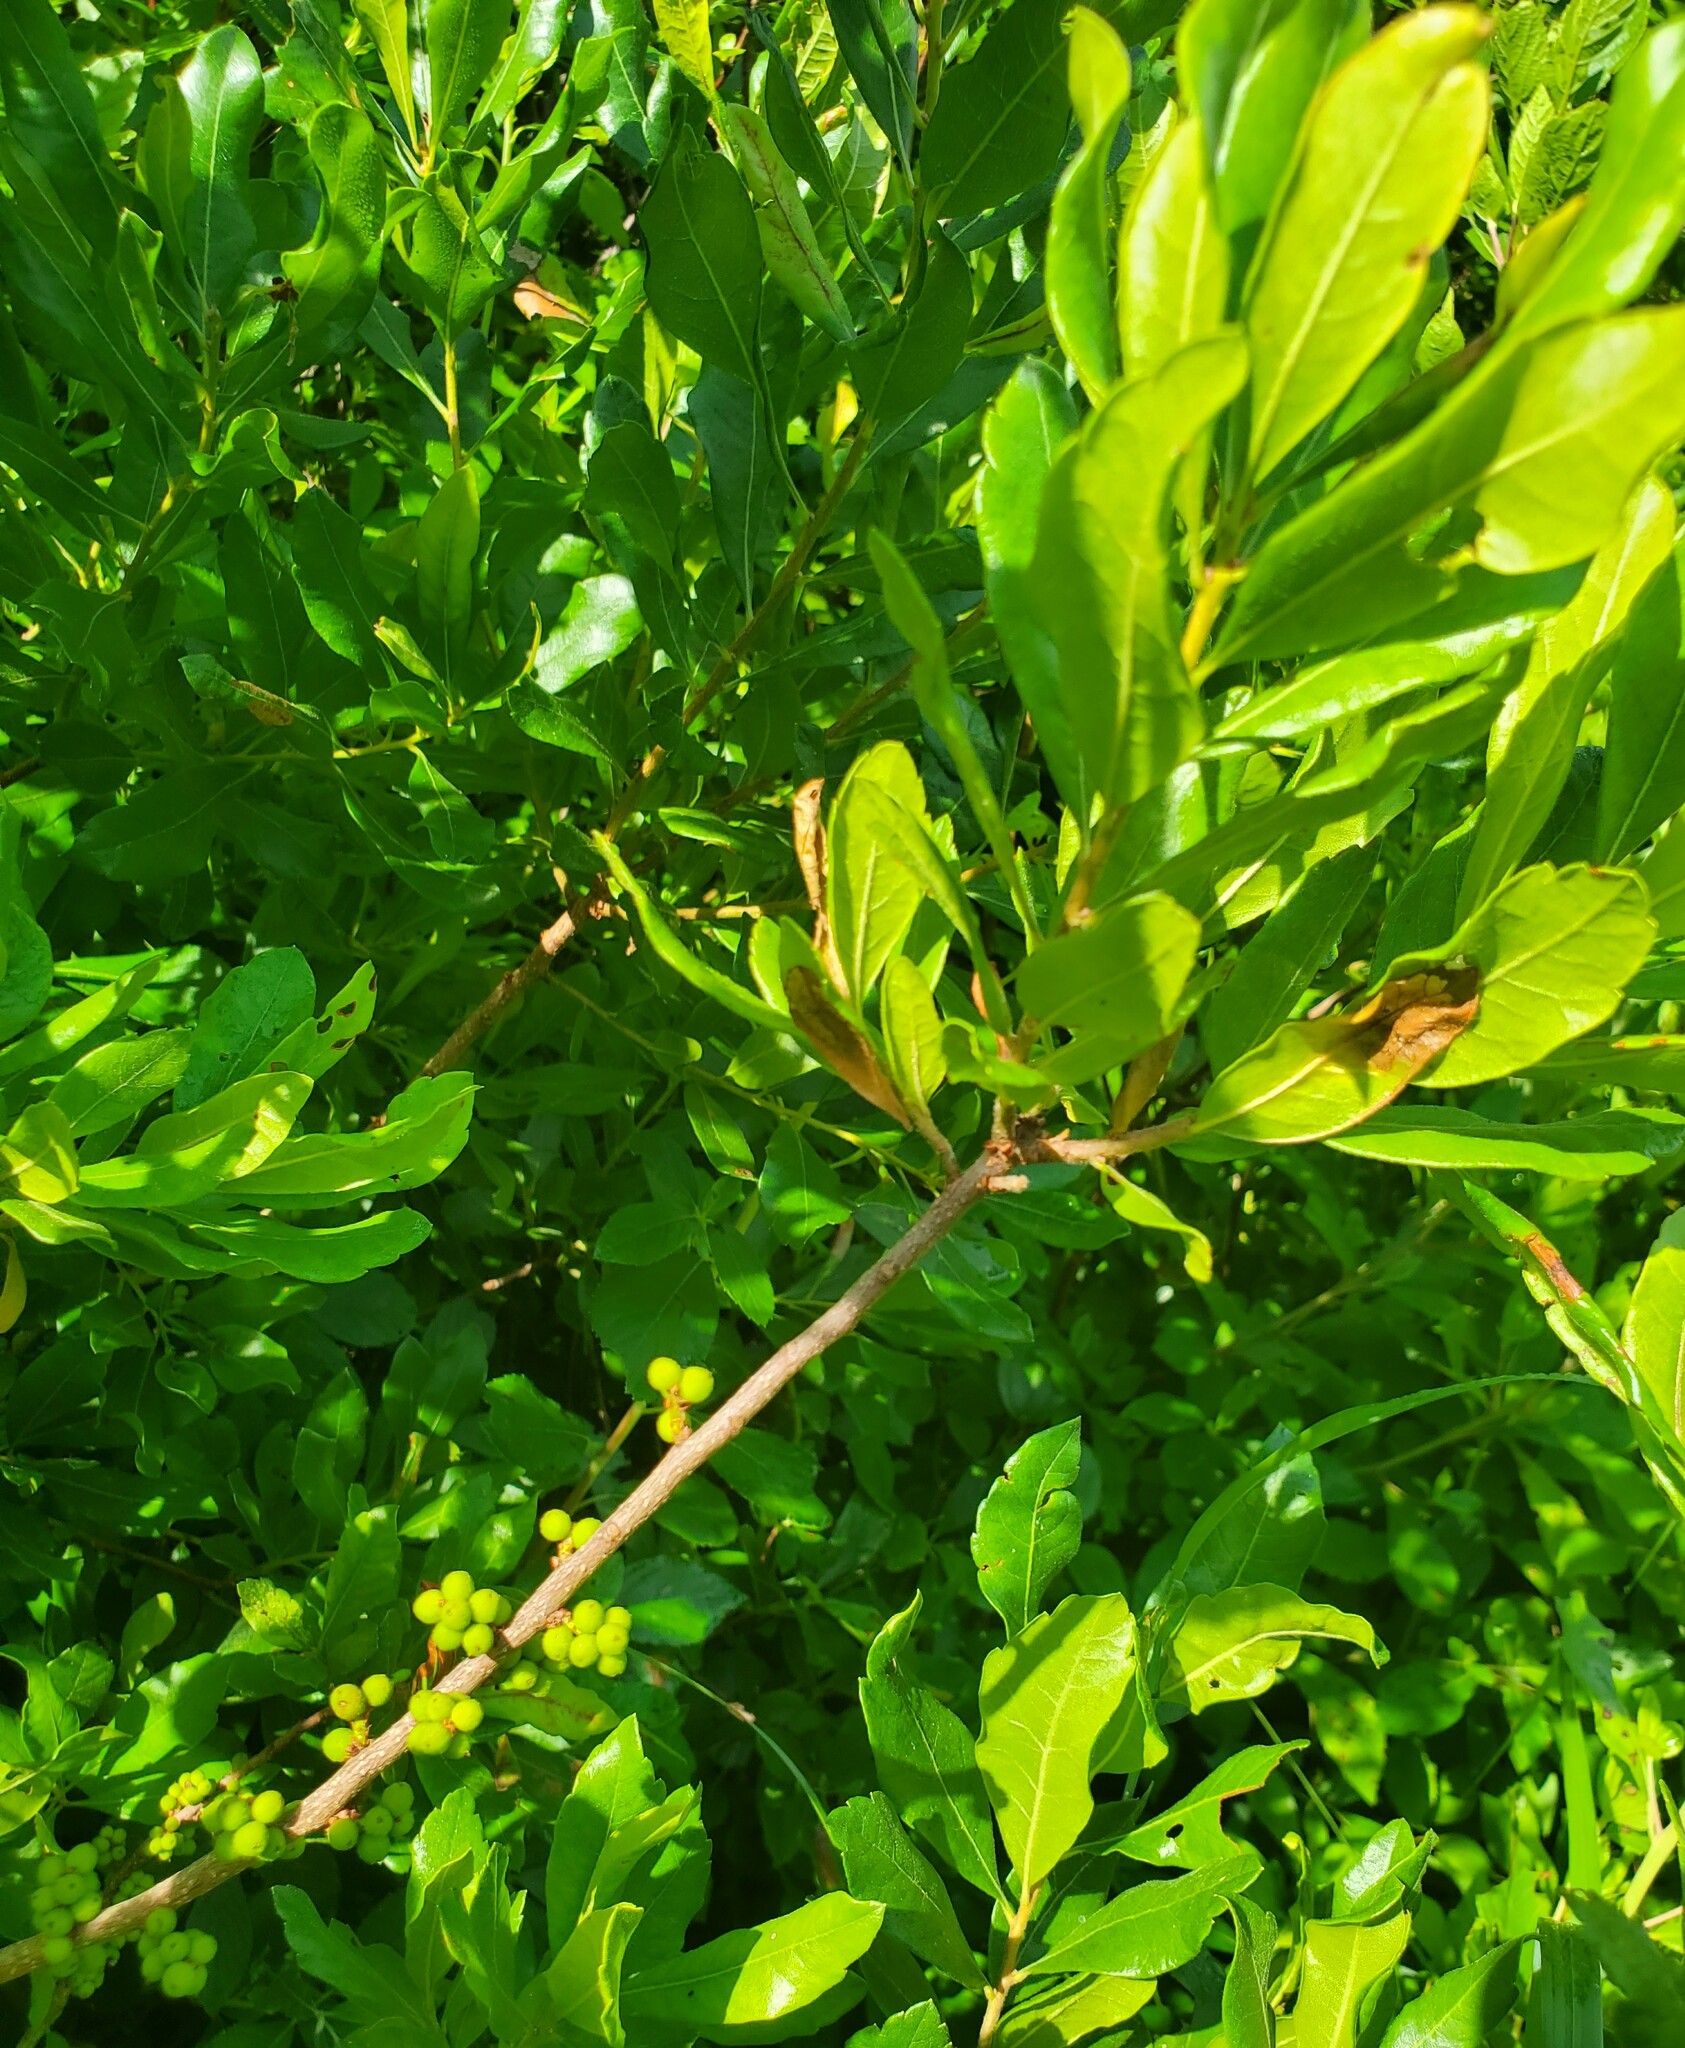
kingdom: Plantae
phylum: Tracheophyta
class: Magnoliopsida
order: Fagales
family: Myricaceae
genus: Morella
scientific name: Morella pensylvanica
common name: Northern bayberry
